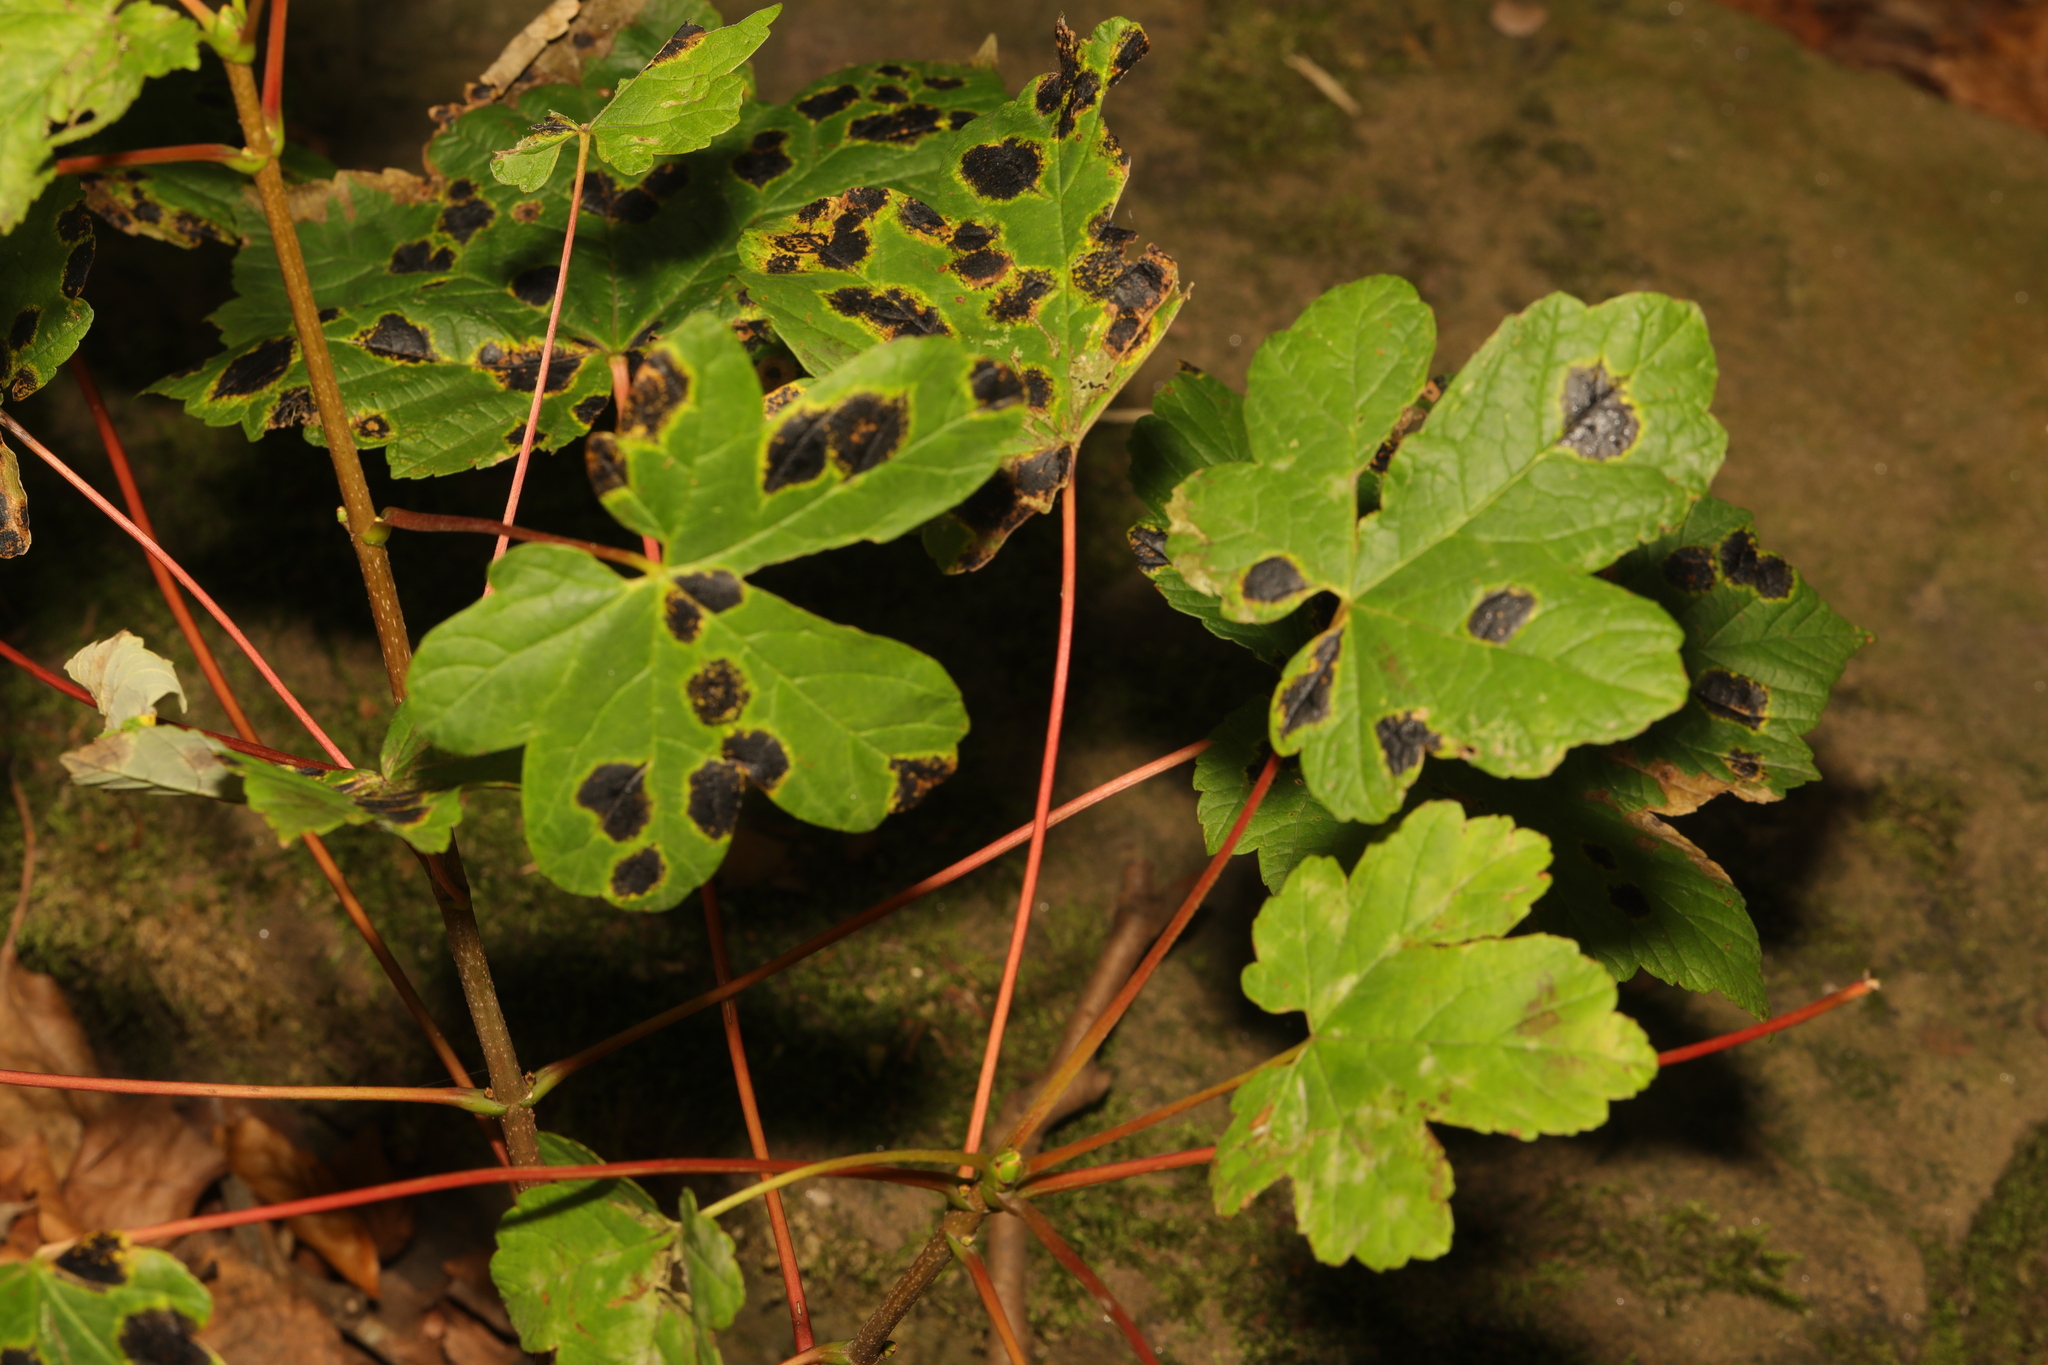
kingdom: Plantae
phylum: Tracheophyta
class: Magnoliopsida
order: Sapindales
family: Sapindaceae
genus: Acer
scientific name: Acer pseudoplatanus
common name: Sycamore
